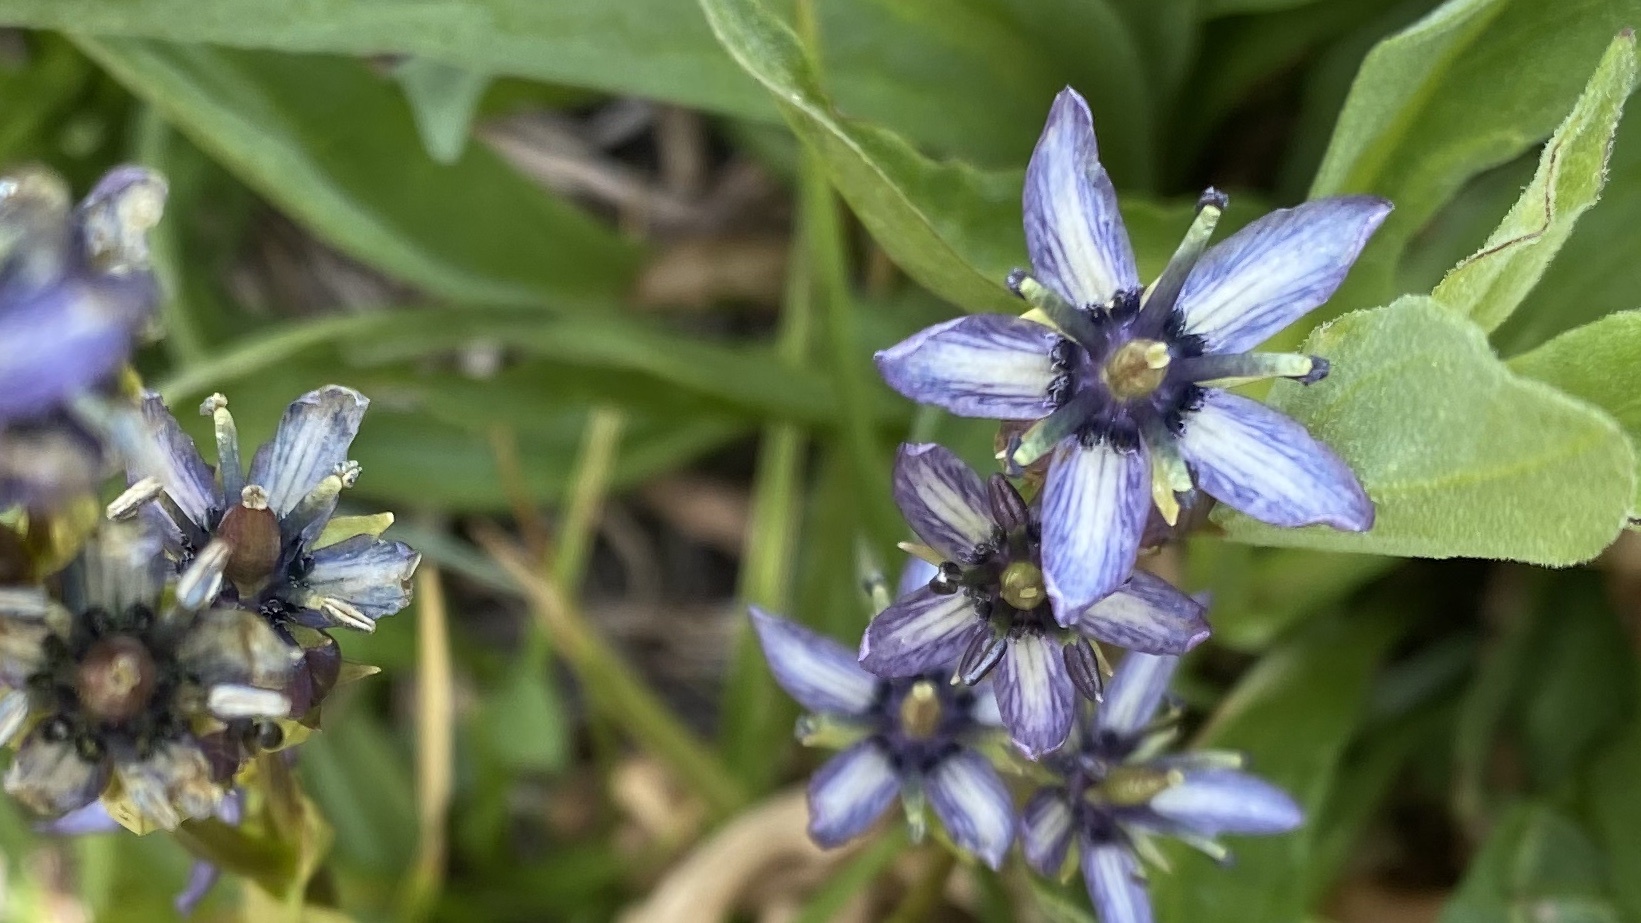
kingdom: Plantae
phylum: Tracheophyta
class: Magnoliopsida
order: Gentianales
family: Gentianaceae
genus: Swertia
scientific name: Swertia perennis
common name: Alpine bog swertia
